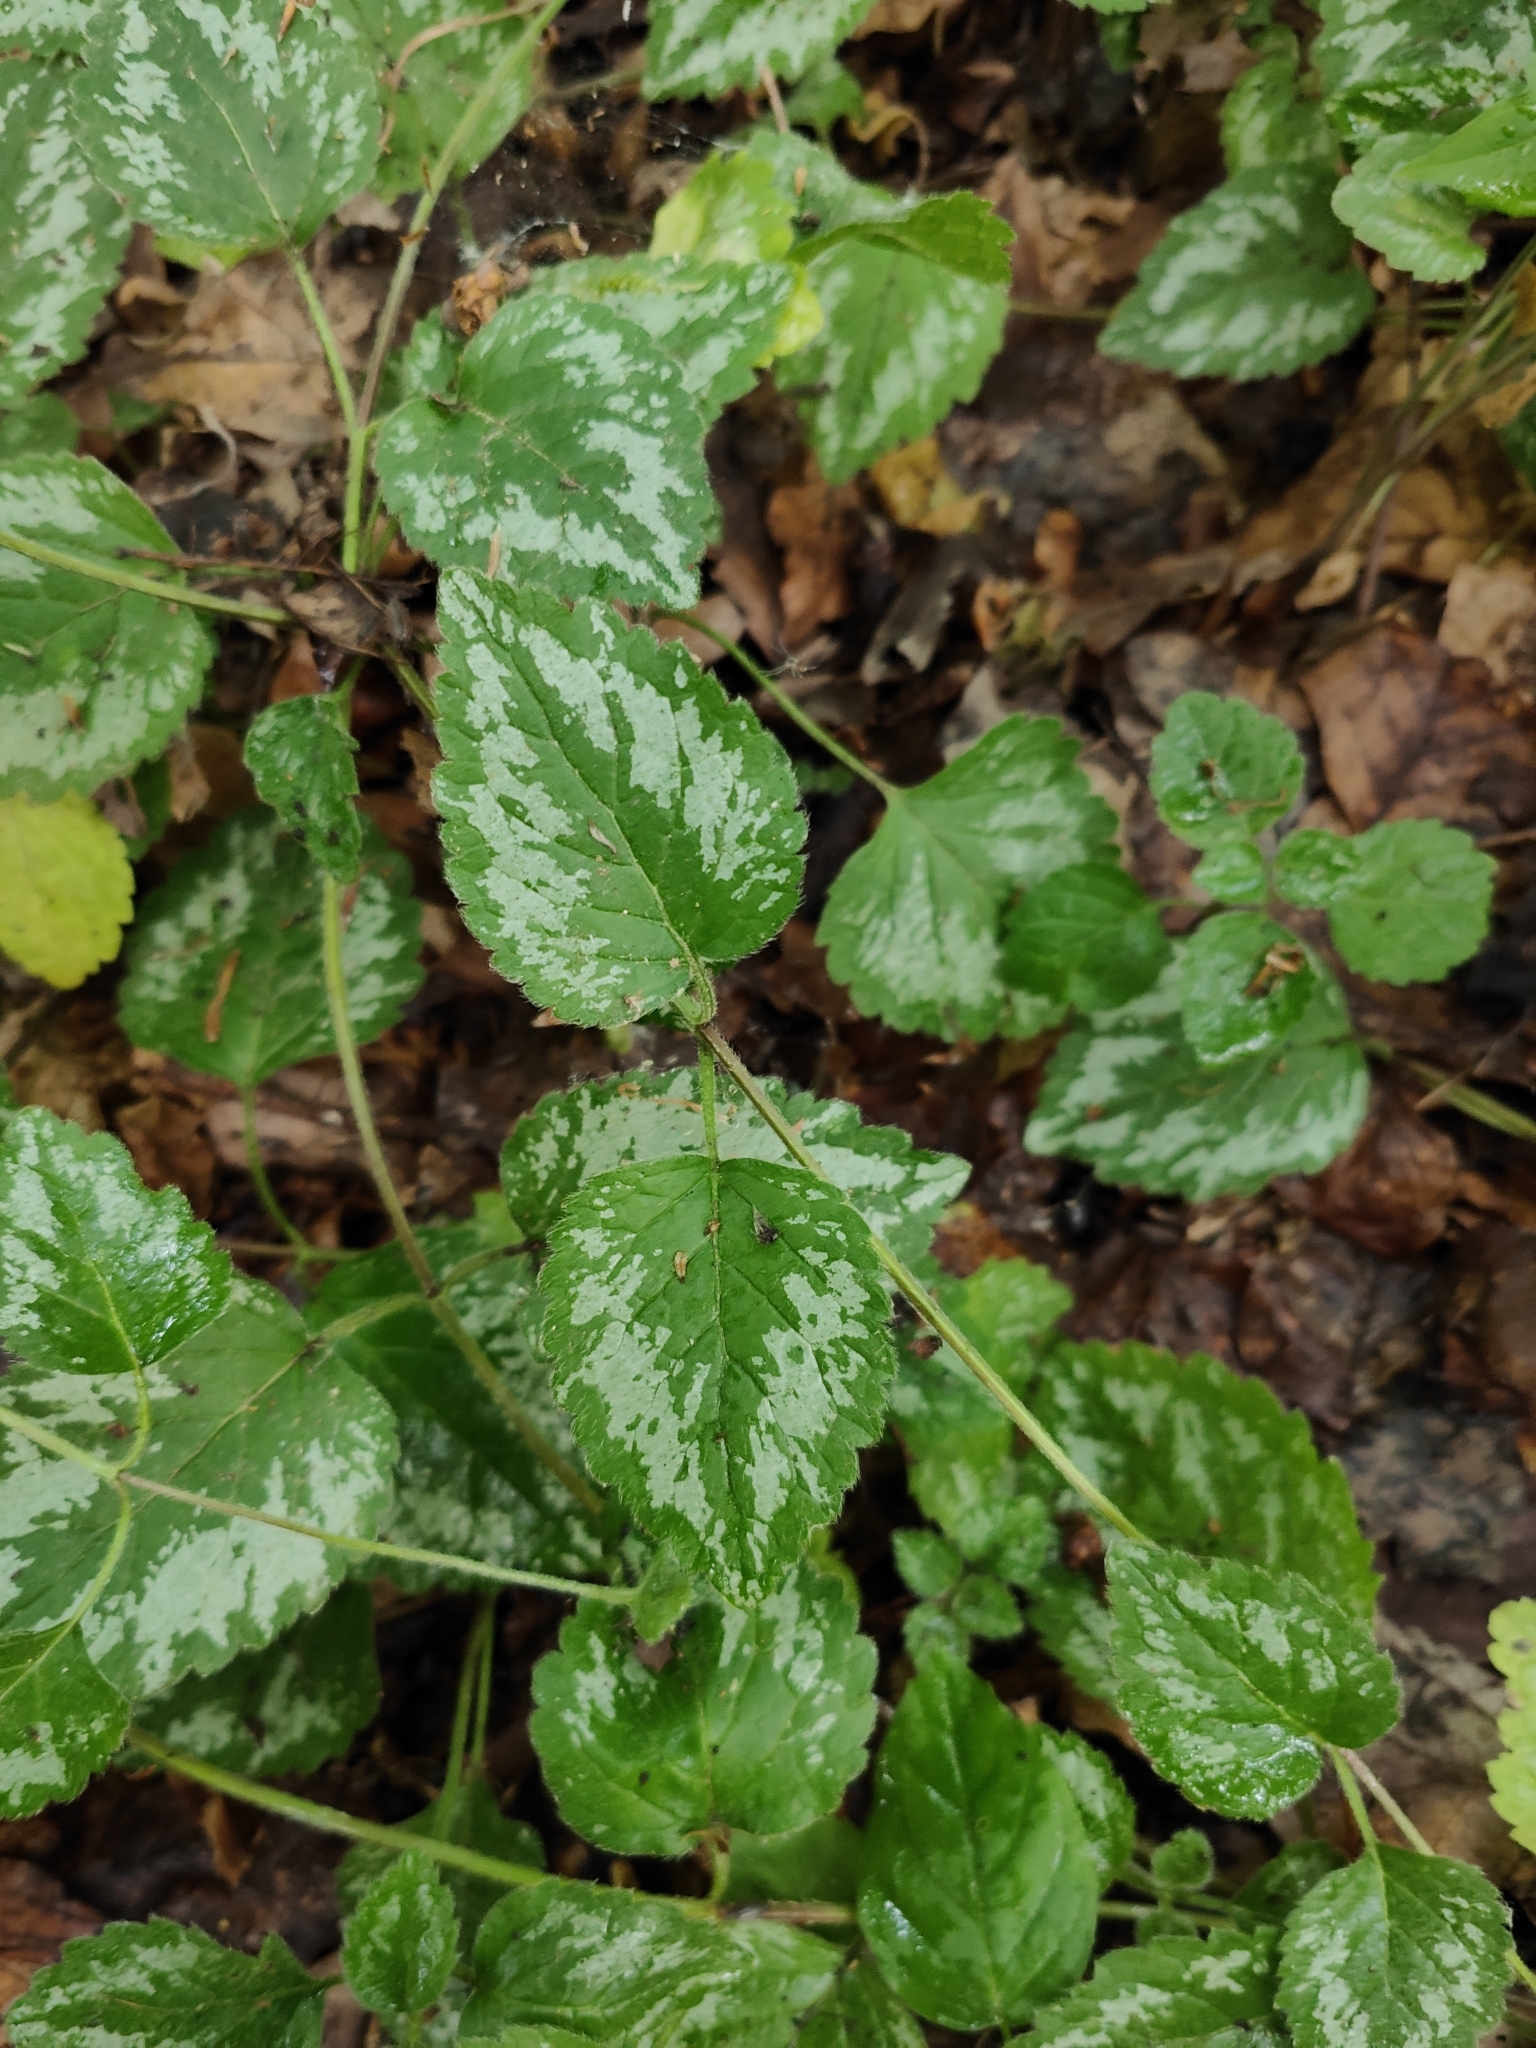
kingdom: Plantae
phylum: Tracheophyta
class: Magnoliopsida
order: Lamiales
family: Lamiaceae
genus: Lamium
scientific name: Lamium galeobdolon
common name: Yellow archangel
